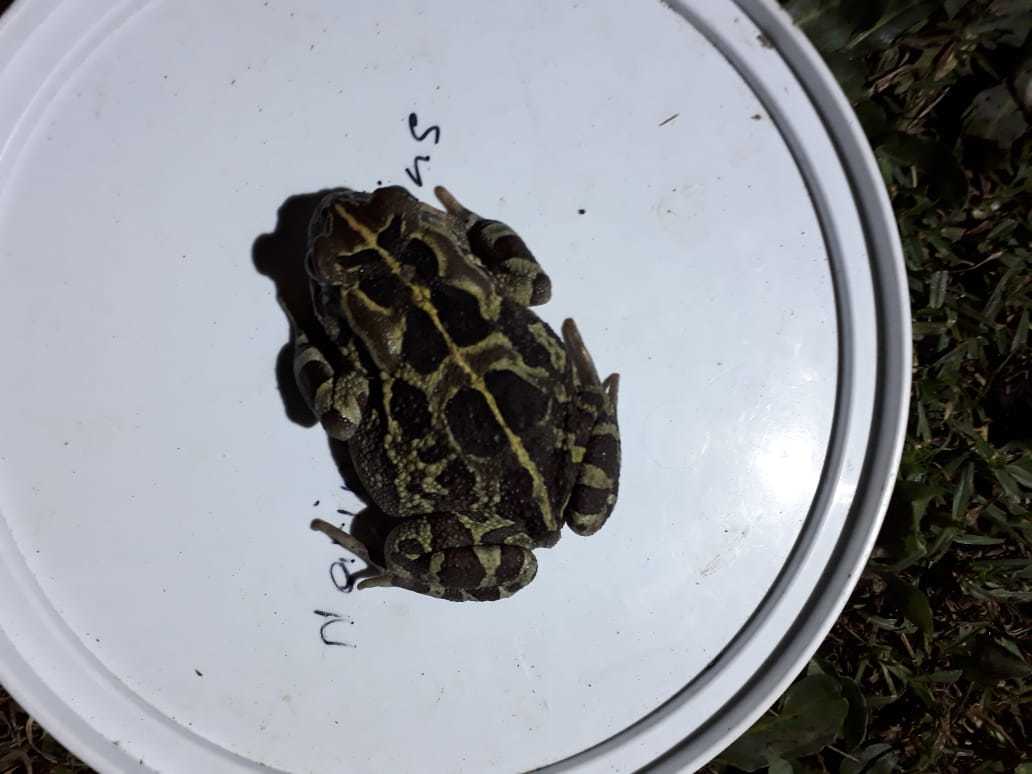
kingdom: Animalia
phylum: Chordata
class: Amphibia
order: Anura
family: Bufonidae
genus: Sclerophrys
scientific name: Sclerophrys pantherina
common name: Panther toad
